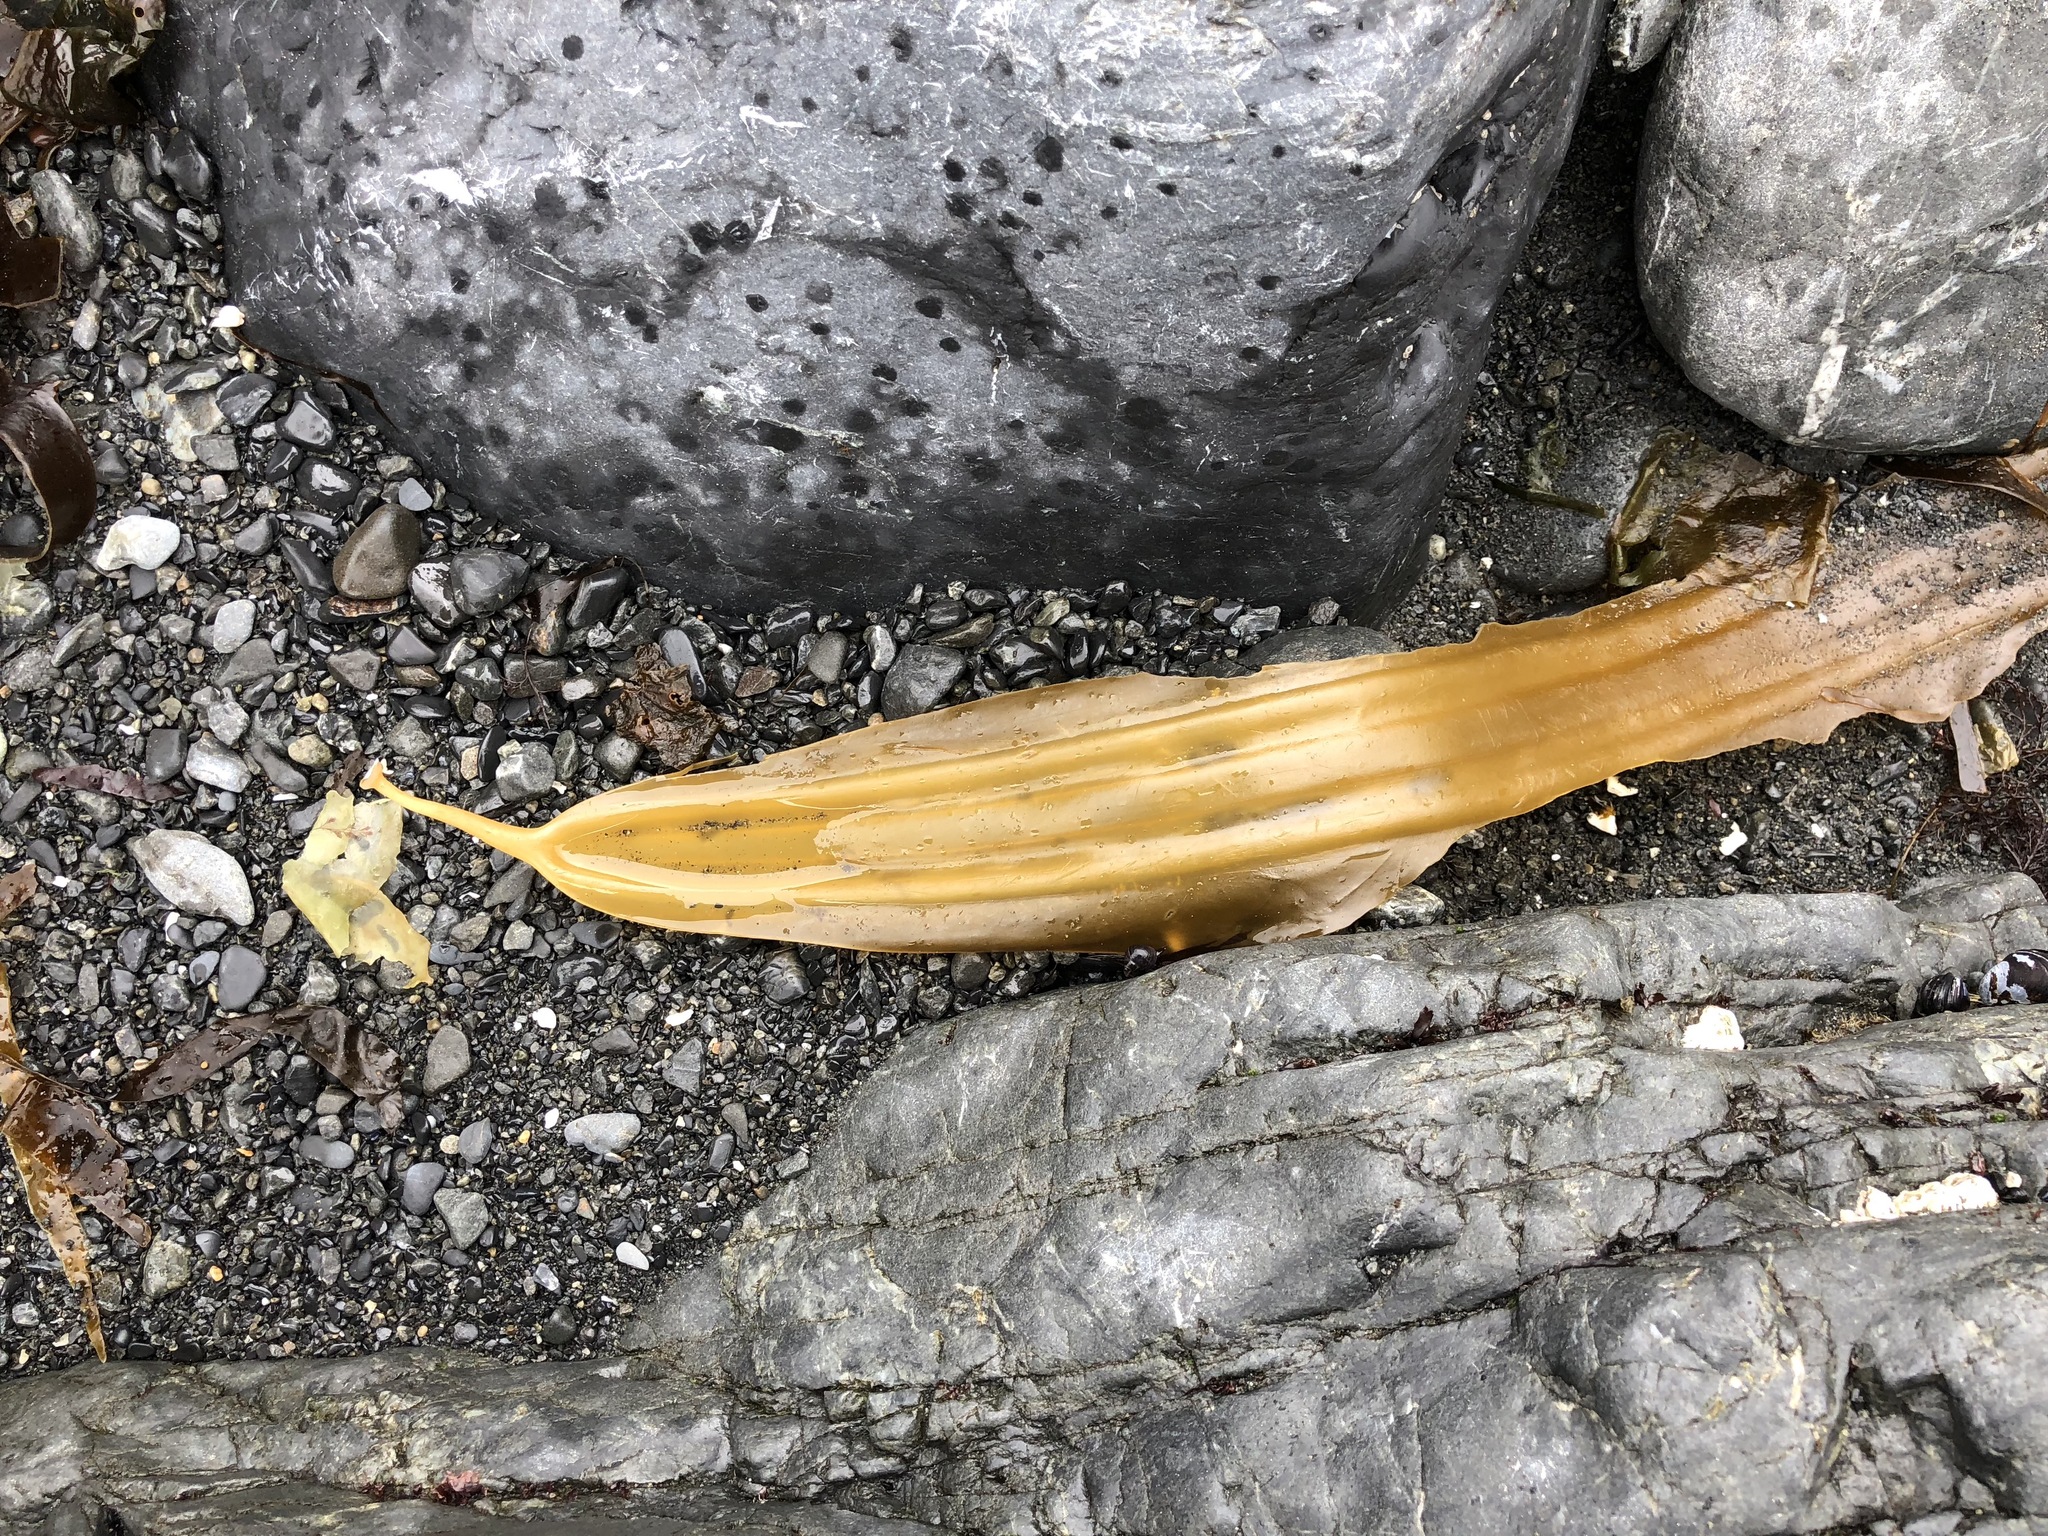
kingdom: Chromista
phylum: Ochrophyta
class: Phaeophyceae
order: Laminariales
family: Laminariaceae
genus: Cymathaere
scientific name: Cymathaere triplicata
